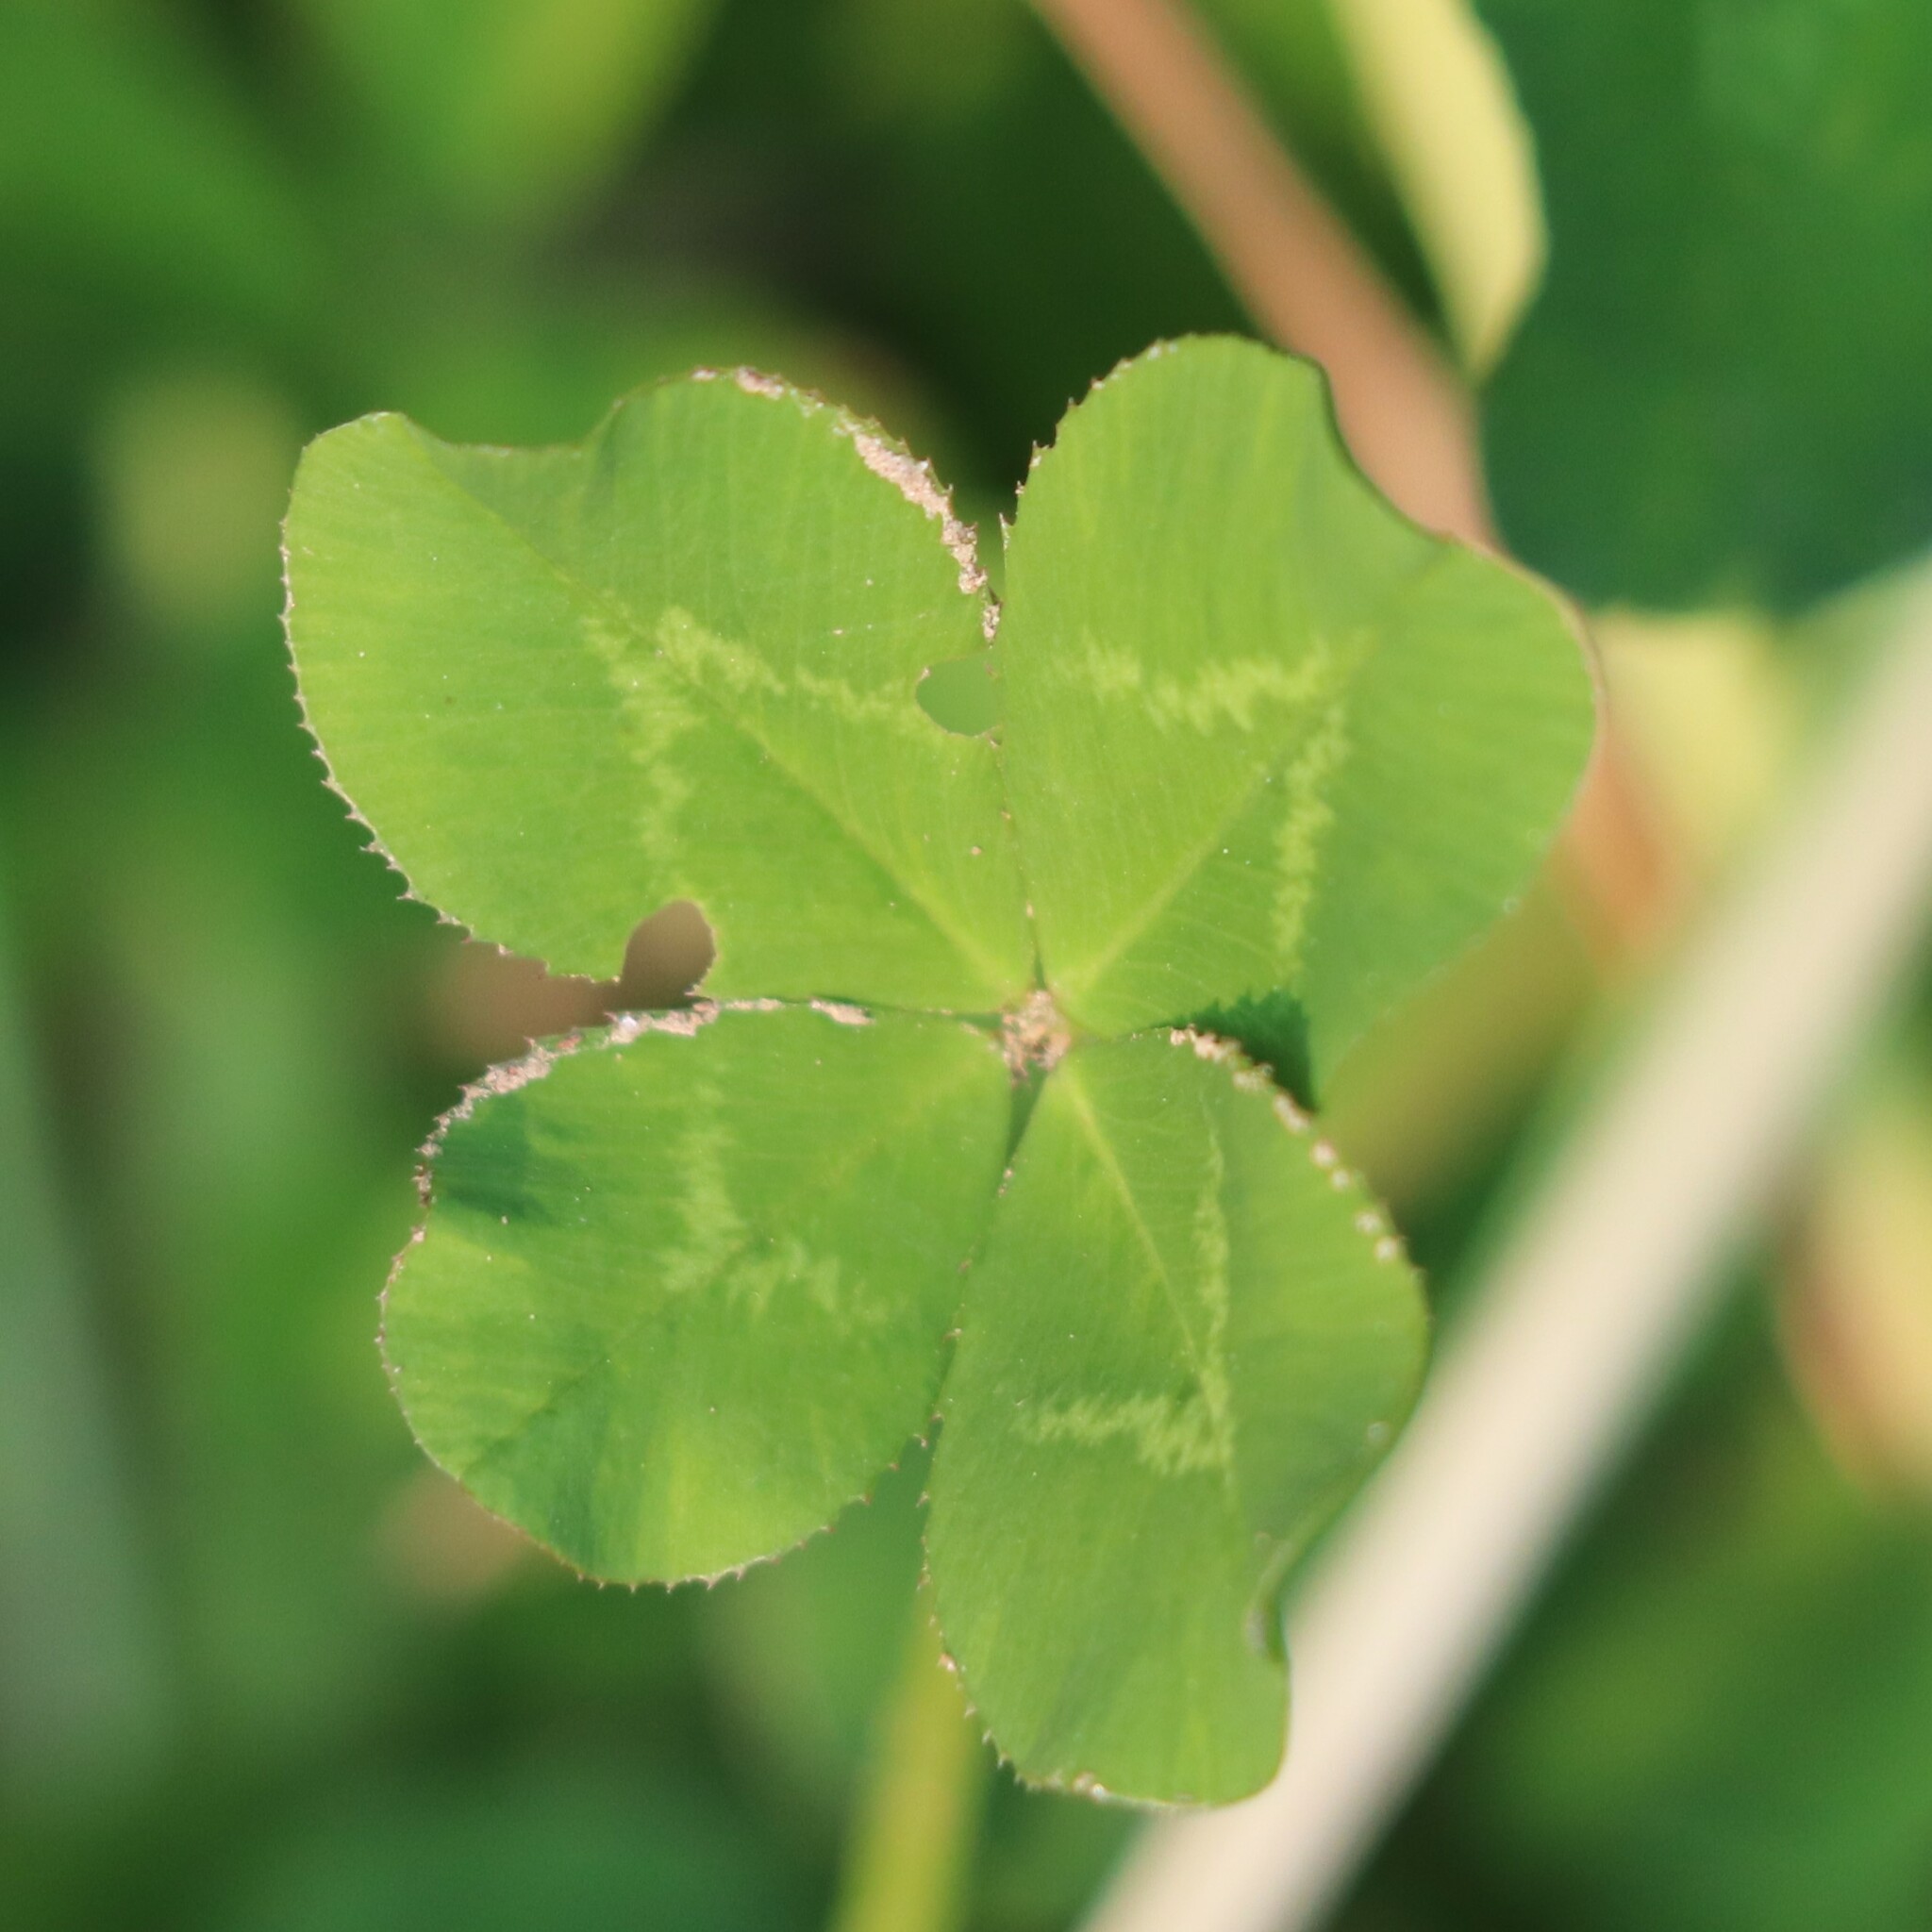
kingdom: Plantae
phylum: Tracheophyta
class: Magnoliopsida
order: Fabales
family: Fabaceae
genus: Trifolium
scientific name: Trifolium repens
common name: White clover
